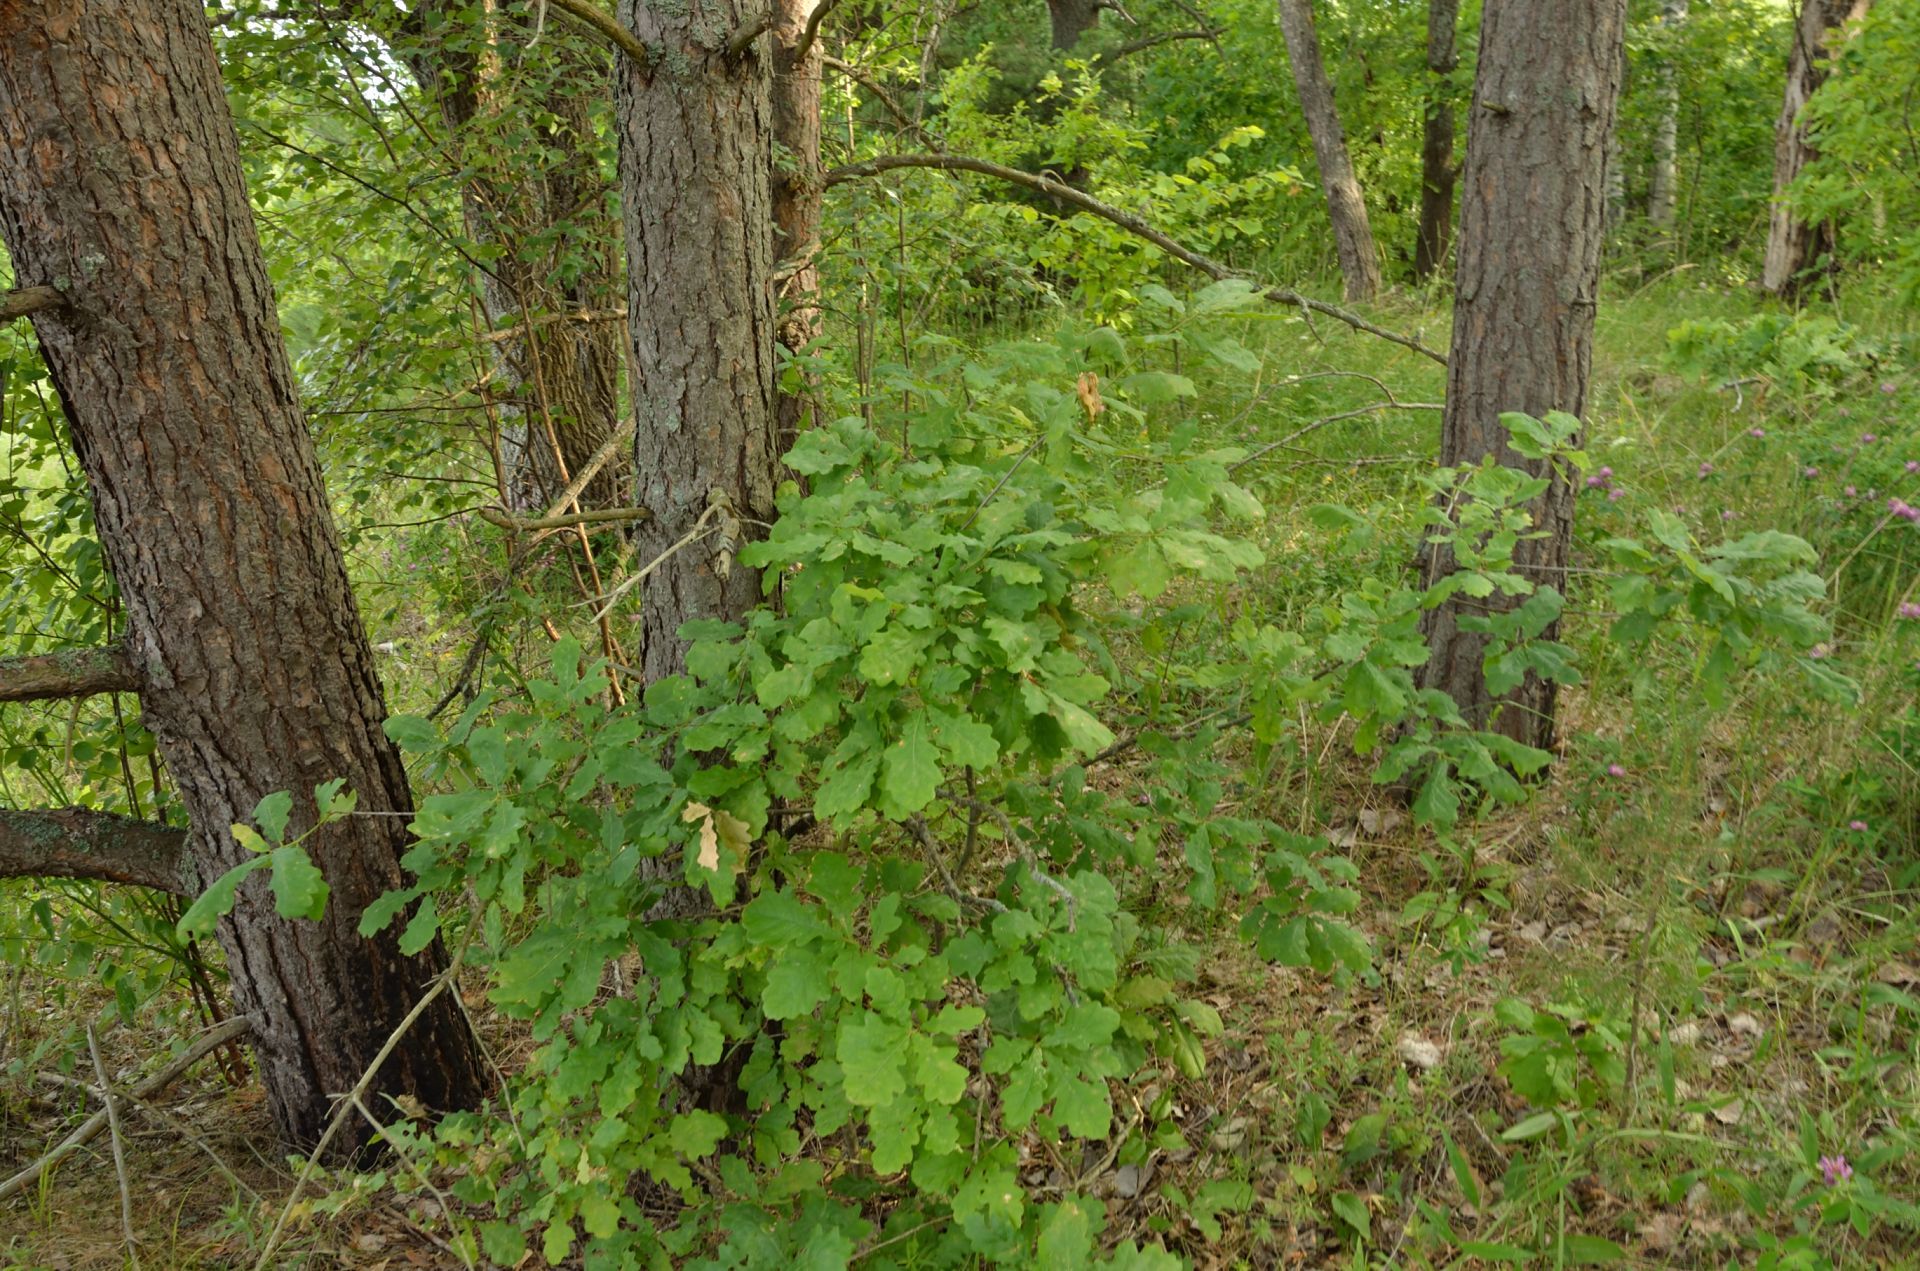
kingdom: Plantae
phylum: Tracheophyta
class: Magnoliopsida
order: Fagales
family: Fagaceae
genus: Quercus
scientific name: Quercus robur
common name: Pedunculate oak
